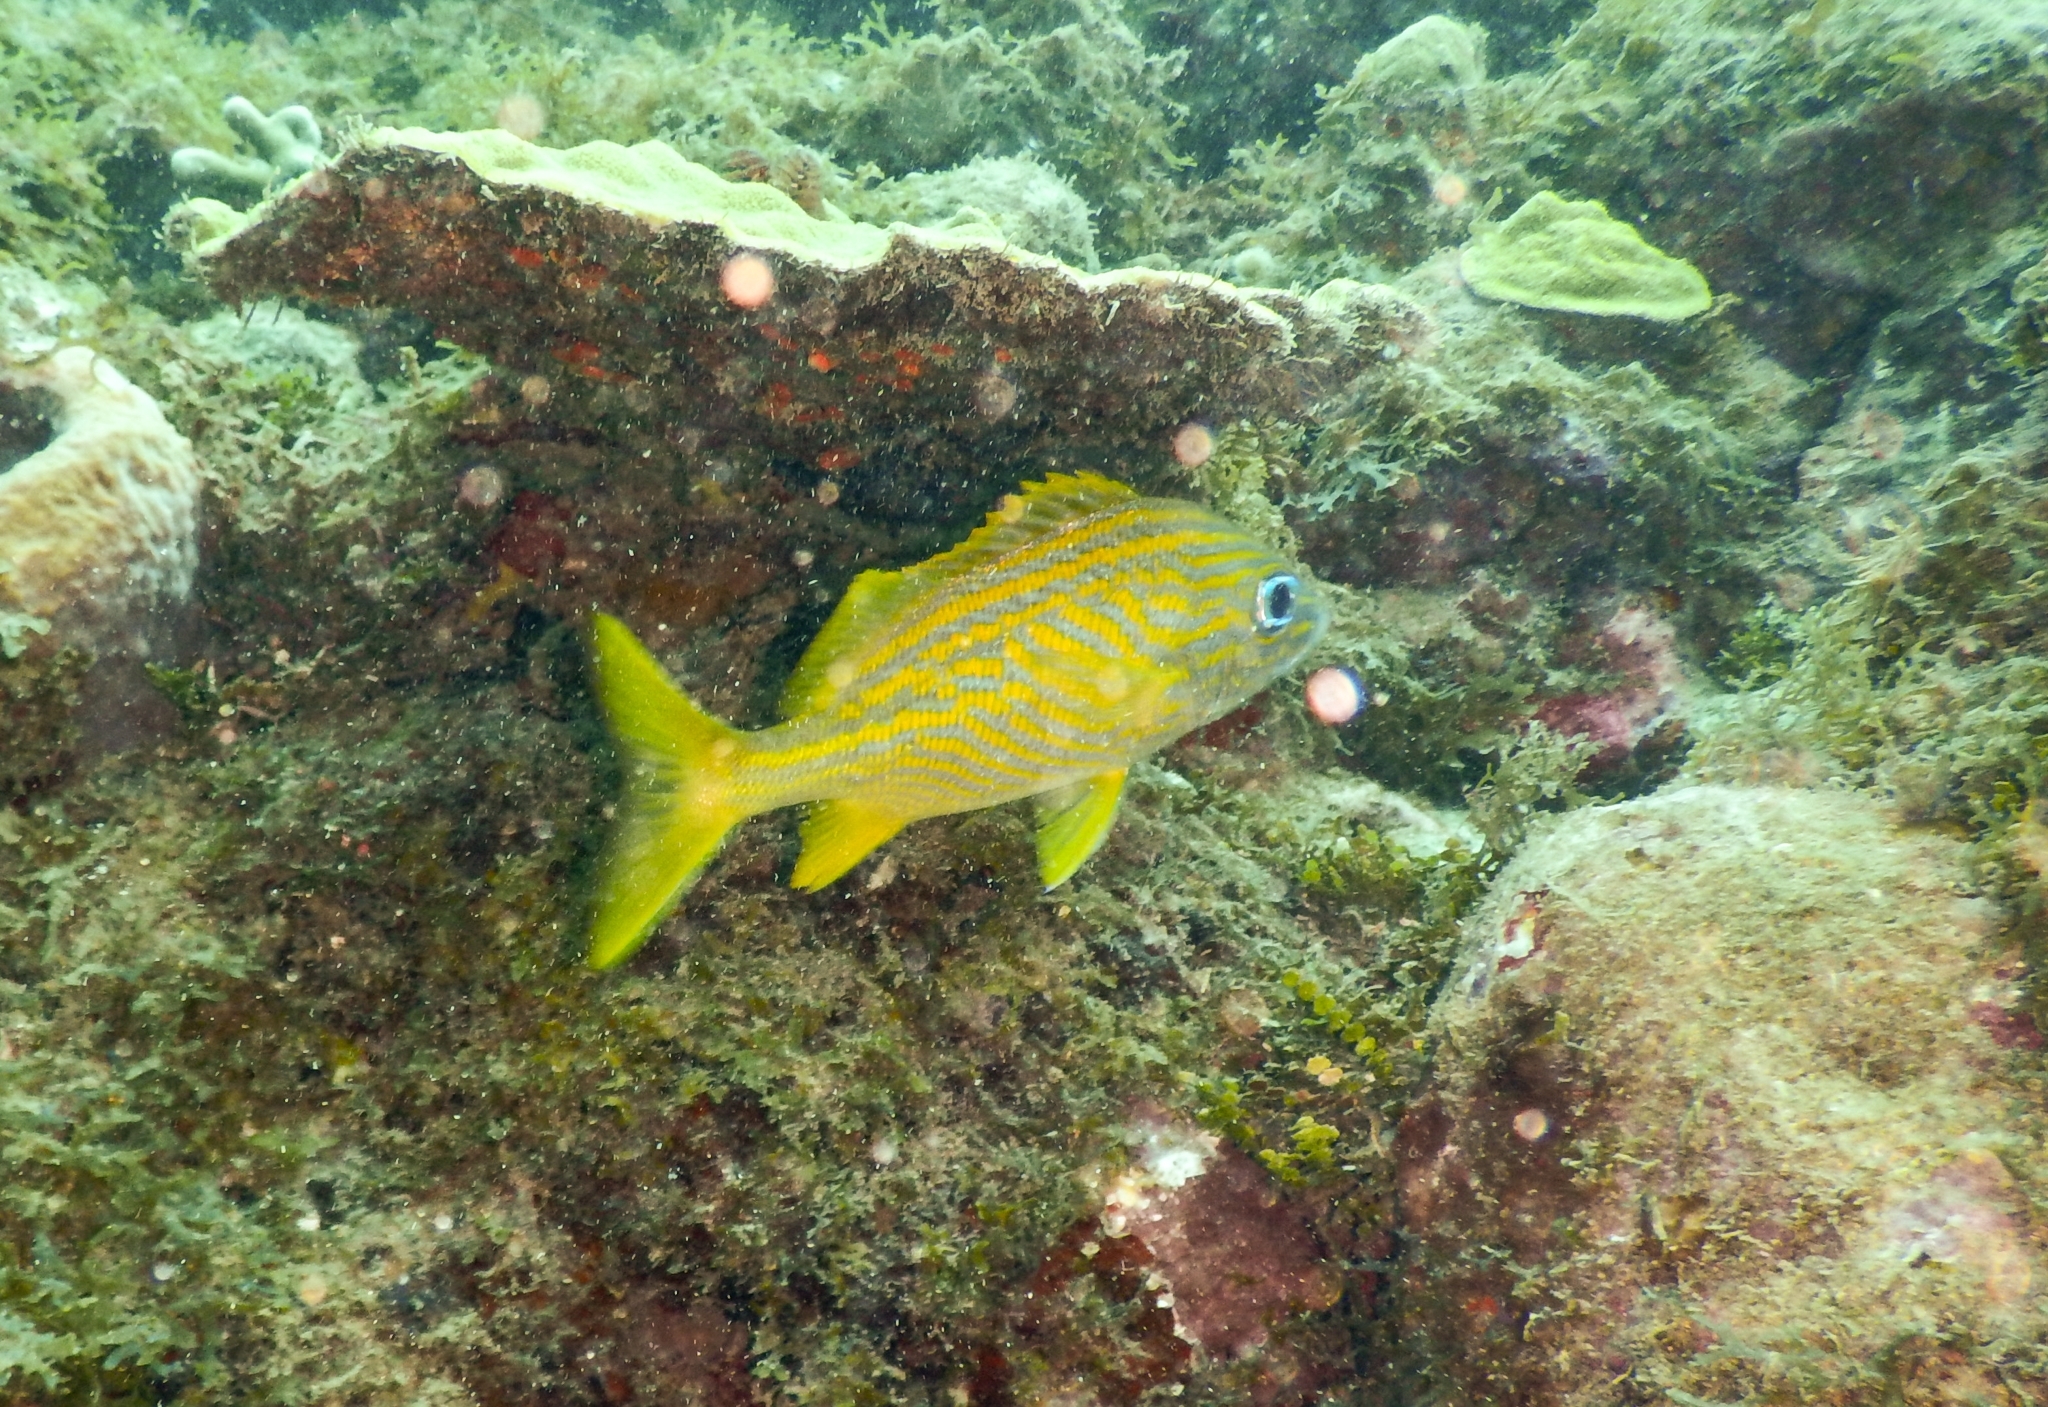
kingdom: Animalia
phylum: Chordata
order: Perciformes
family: Haemulidae
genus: Haemulon
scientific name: Haemulon flavolineatum
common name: French grunt
